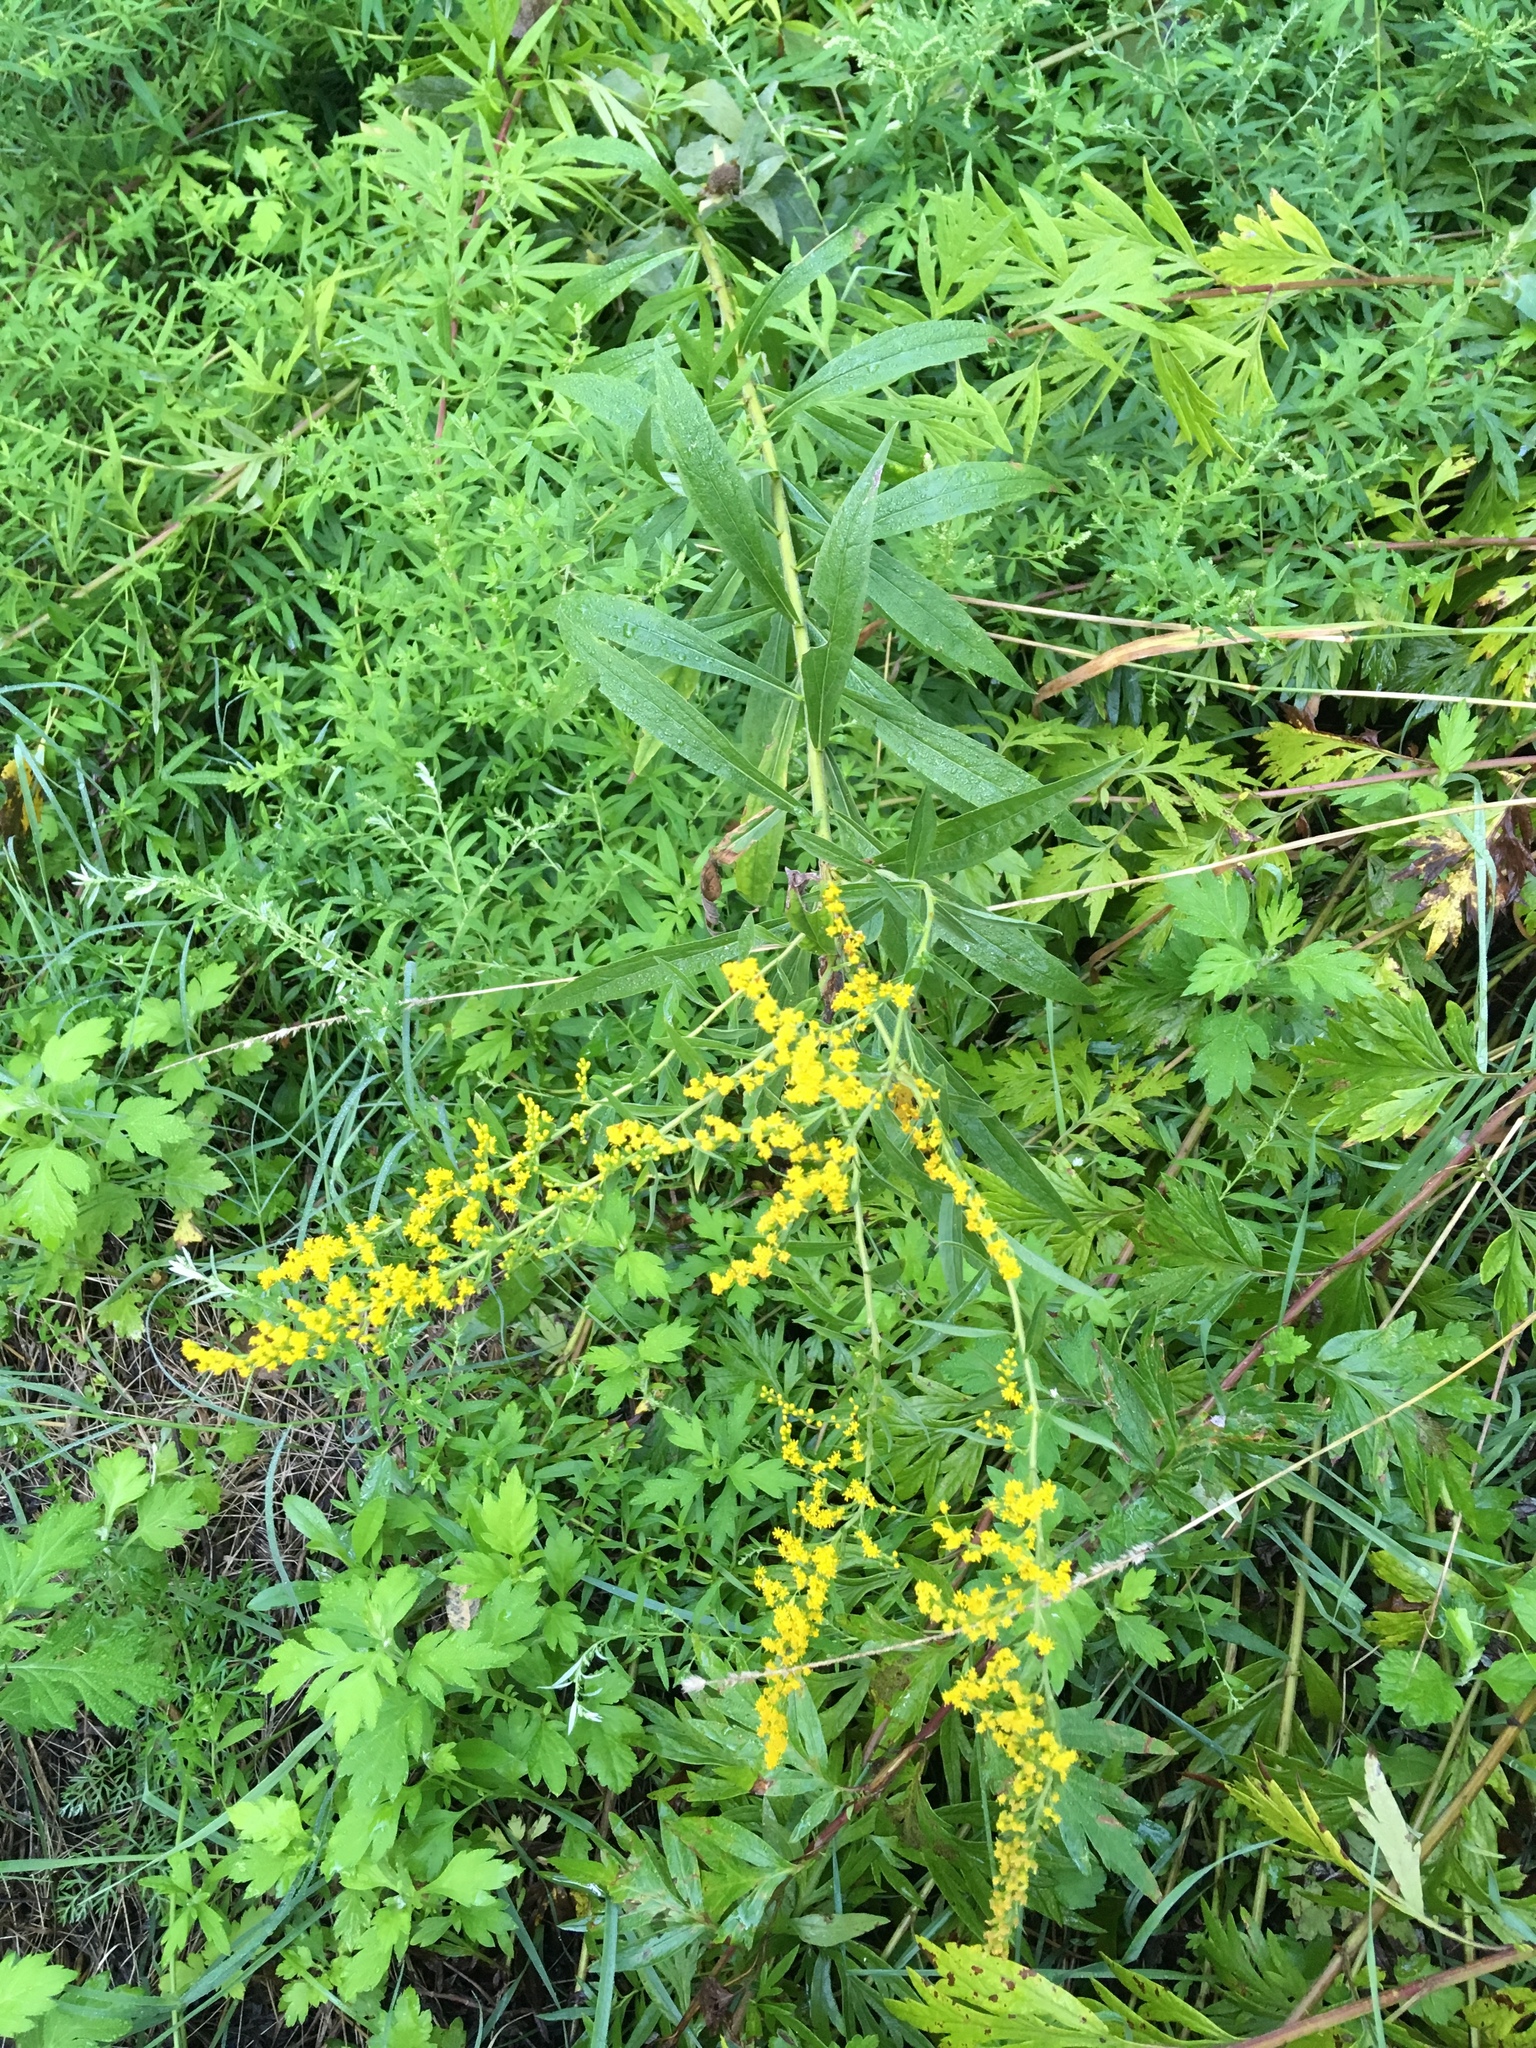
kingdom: Plantae
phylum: Tracheophyta
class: Magnoliopsida
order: Asterales
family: Asteraceae
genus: Solidago
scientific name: Solidago altissima
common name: Late goldenrod
